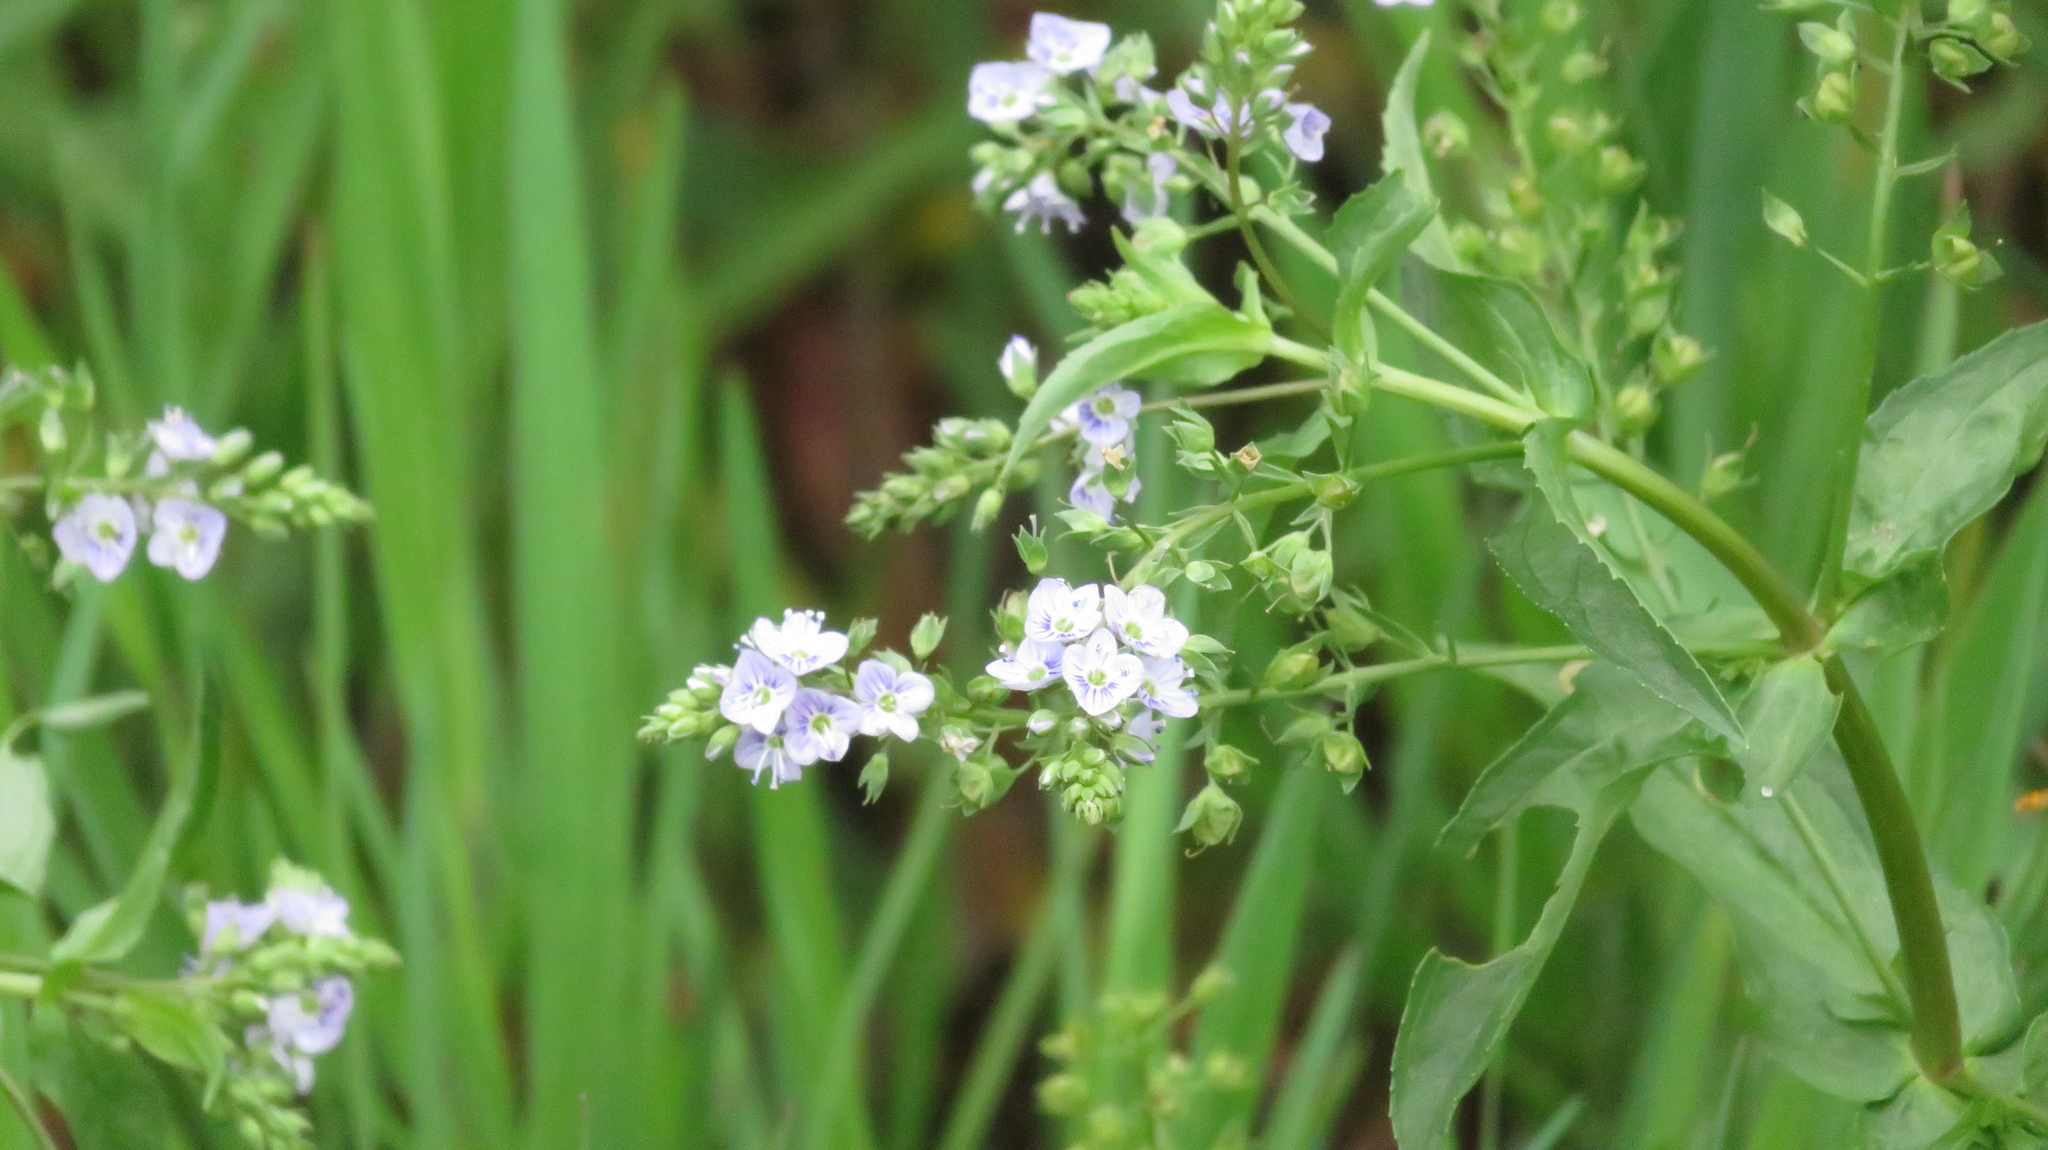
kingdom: Plantae
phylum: Tracheophyta
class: Magnoliopsida
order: Lamiales
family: Plantaginaceae
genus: Veronica
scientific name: Veronica anagallis-aquatica
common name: Water speedwell
